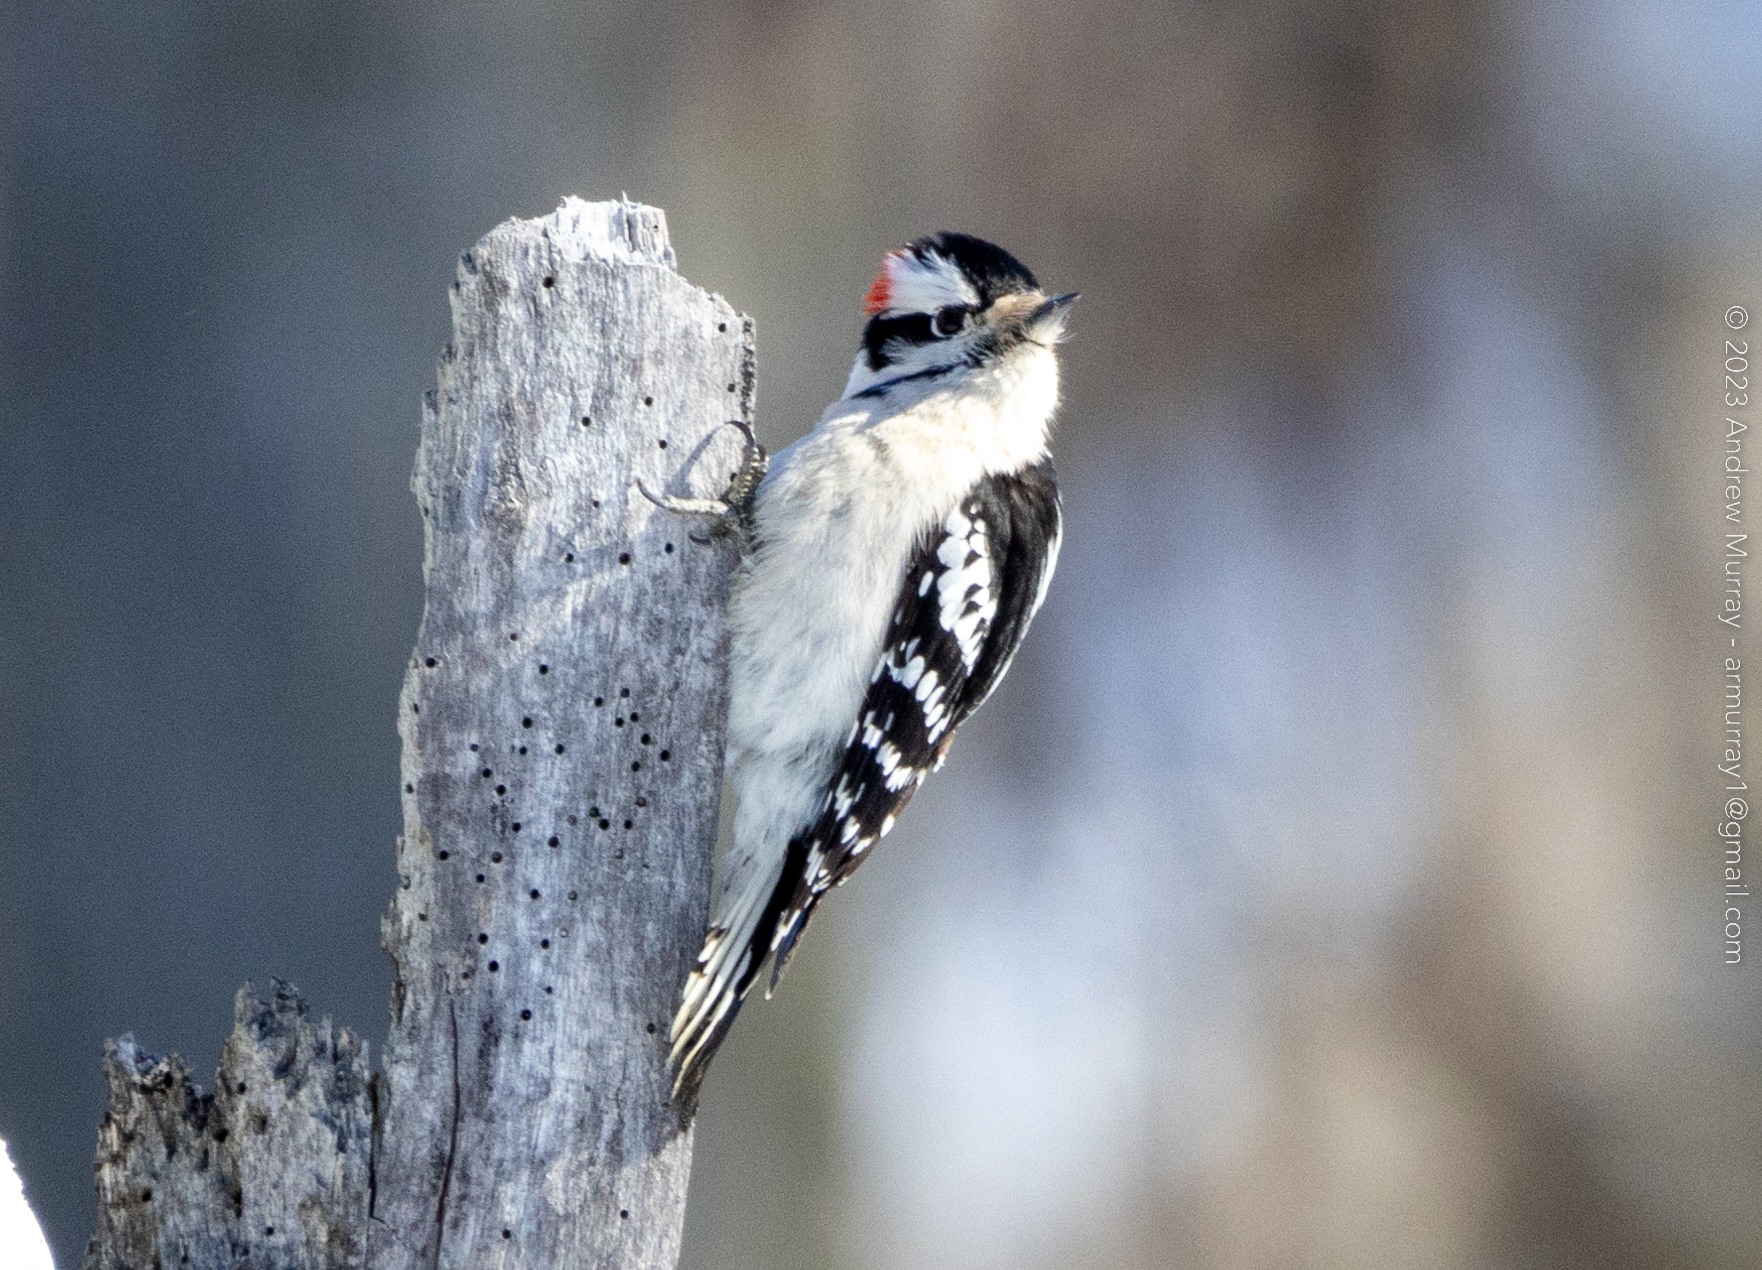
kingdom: Animalia
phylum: Chordata
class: Aves
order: Piciformes
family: Picidae
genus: Dryobates
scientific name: Dryobates pubescens
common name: Downy woodpecker
